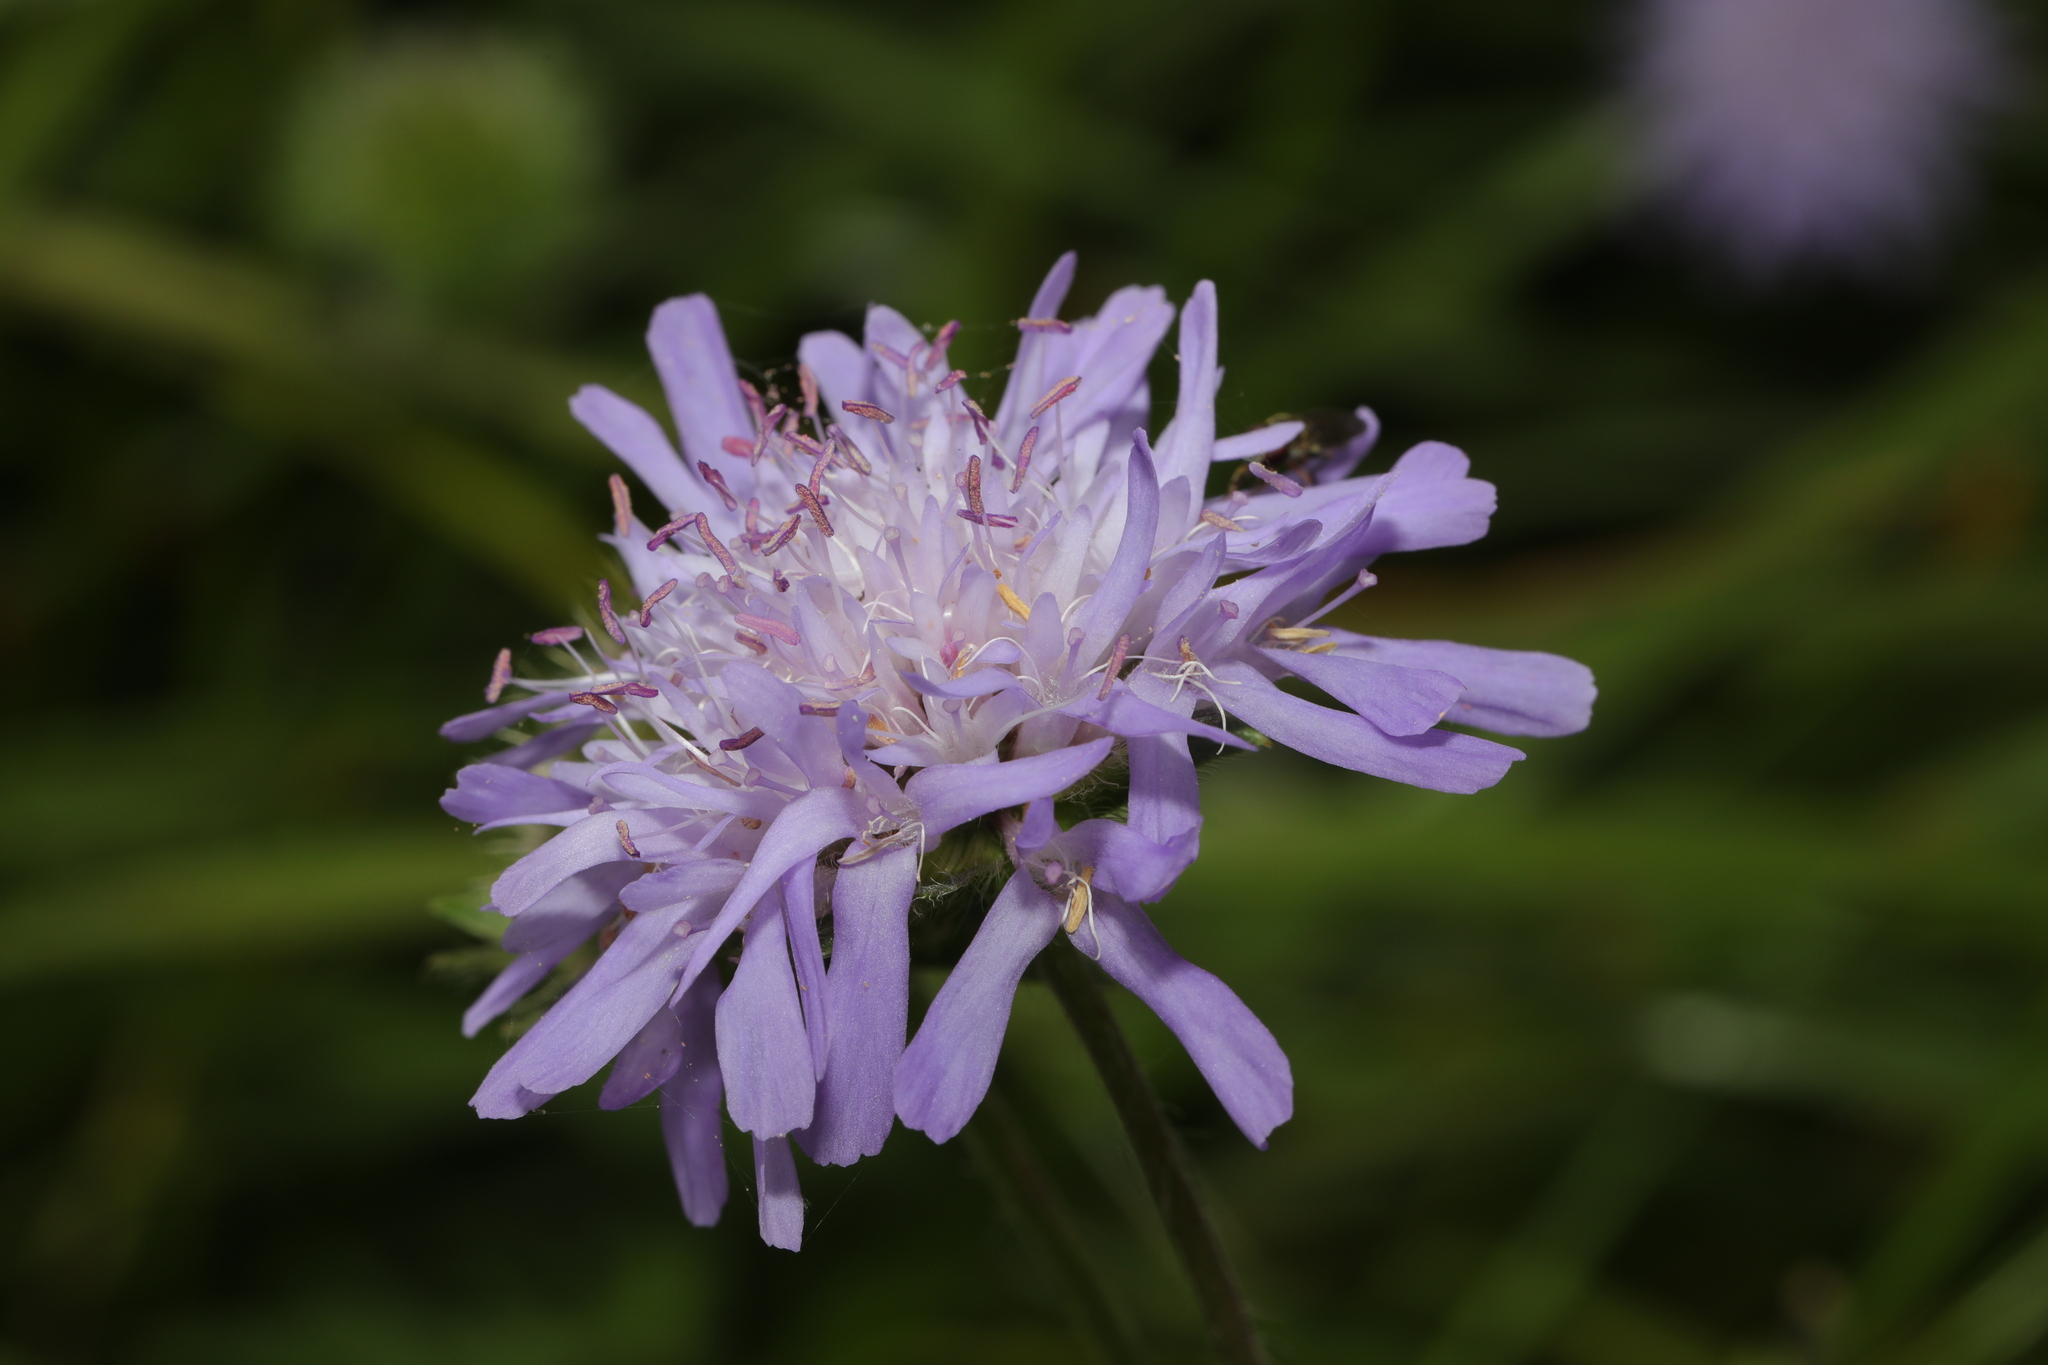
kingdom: Plantae
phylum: Tracheophyta
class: Magnoliopsida
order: Dipsacales
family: Caprifoliaceae
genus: Knautia
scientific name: Knautia arvensis
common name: Field scabiosa
